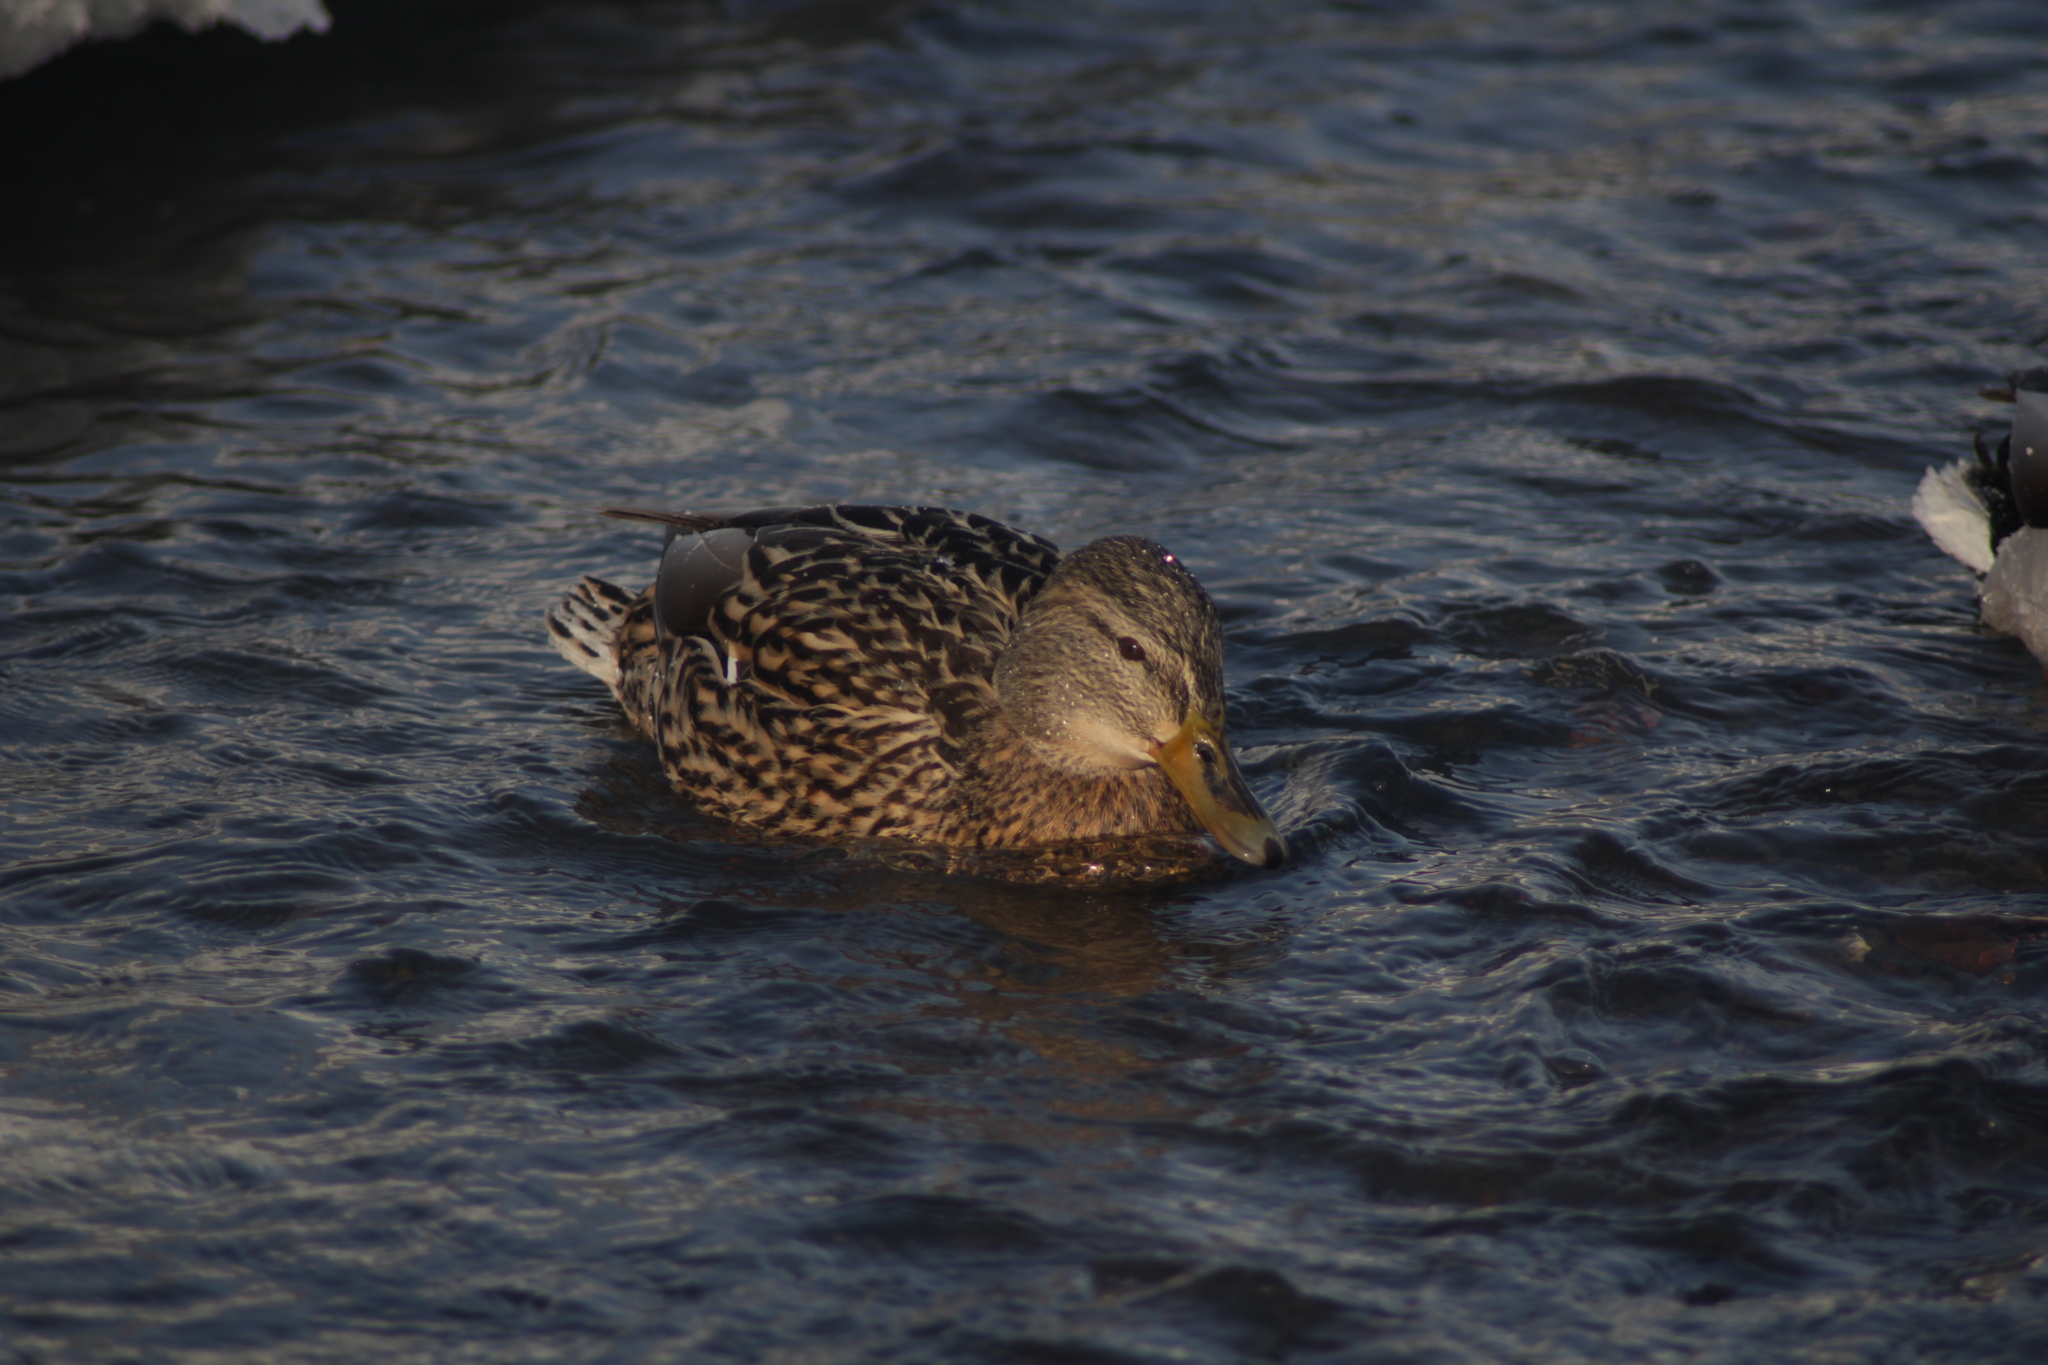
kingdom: Animalia
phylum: Chordata
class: Aves
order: Anseriformes
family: Anatidae
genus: Anas
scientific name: Anas platyrhynchos
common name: Mallard
